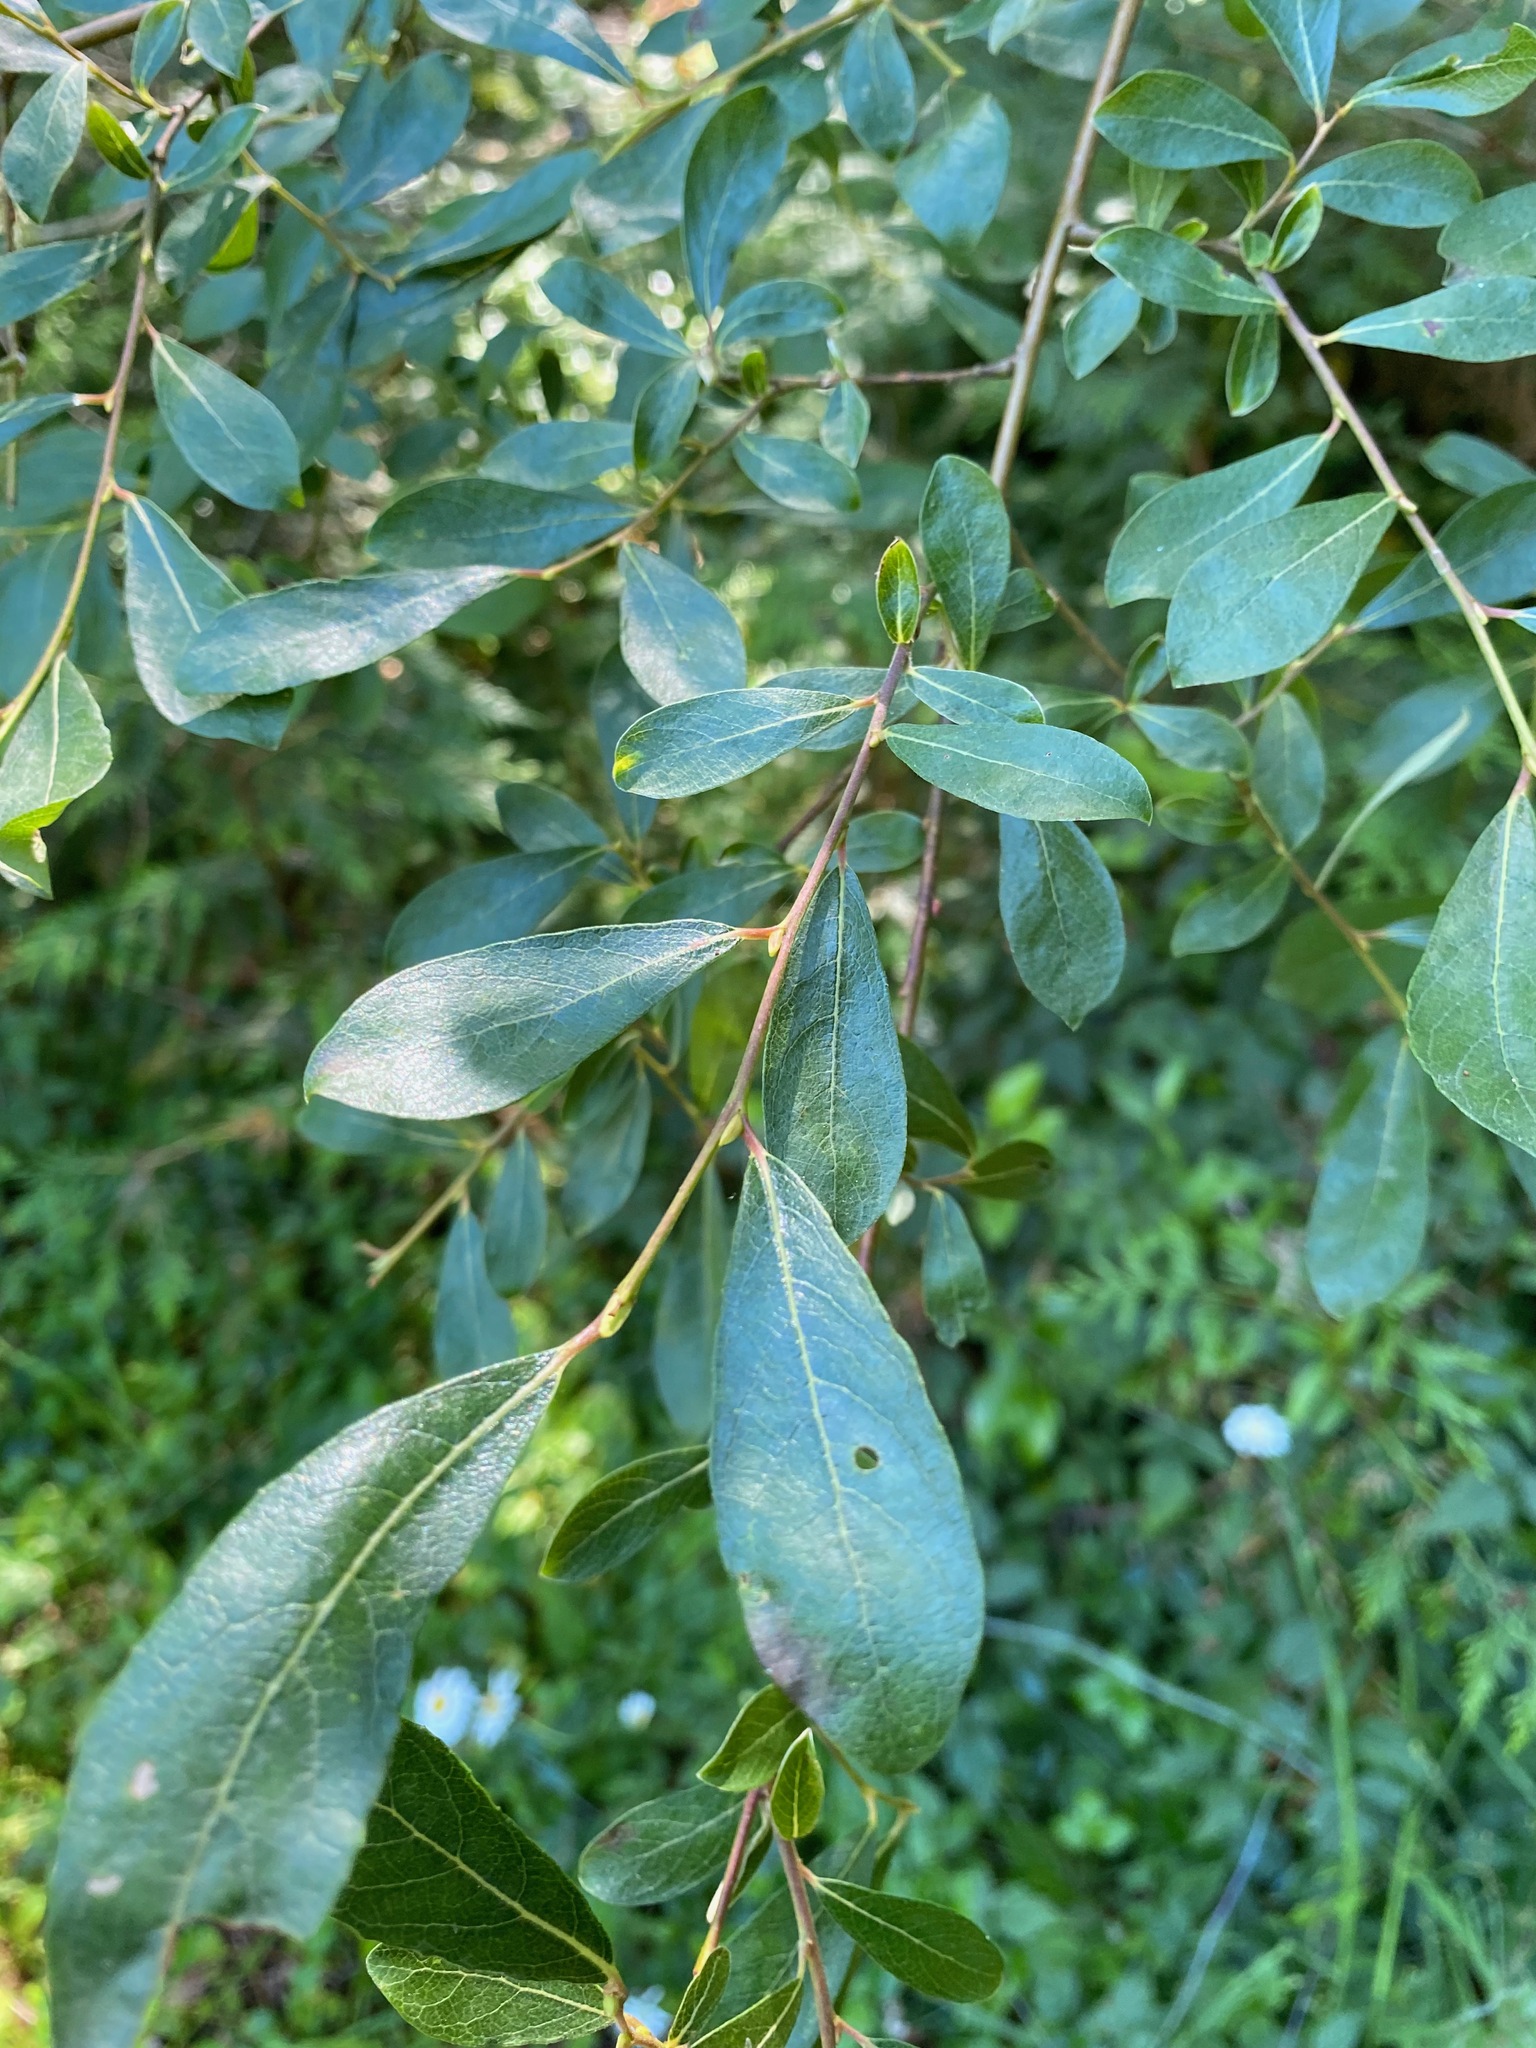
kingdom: Plantae
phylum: Tracheophyta
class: Magnoliopsida
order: Malpighiales
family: Salicaceae
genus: Salix
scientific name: Salix scouleriana
